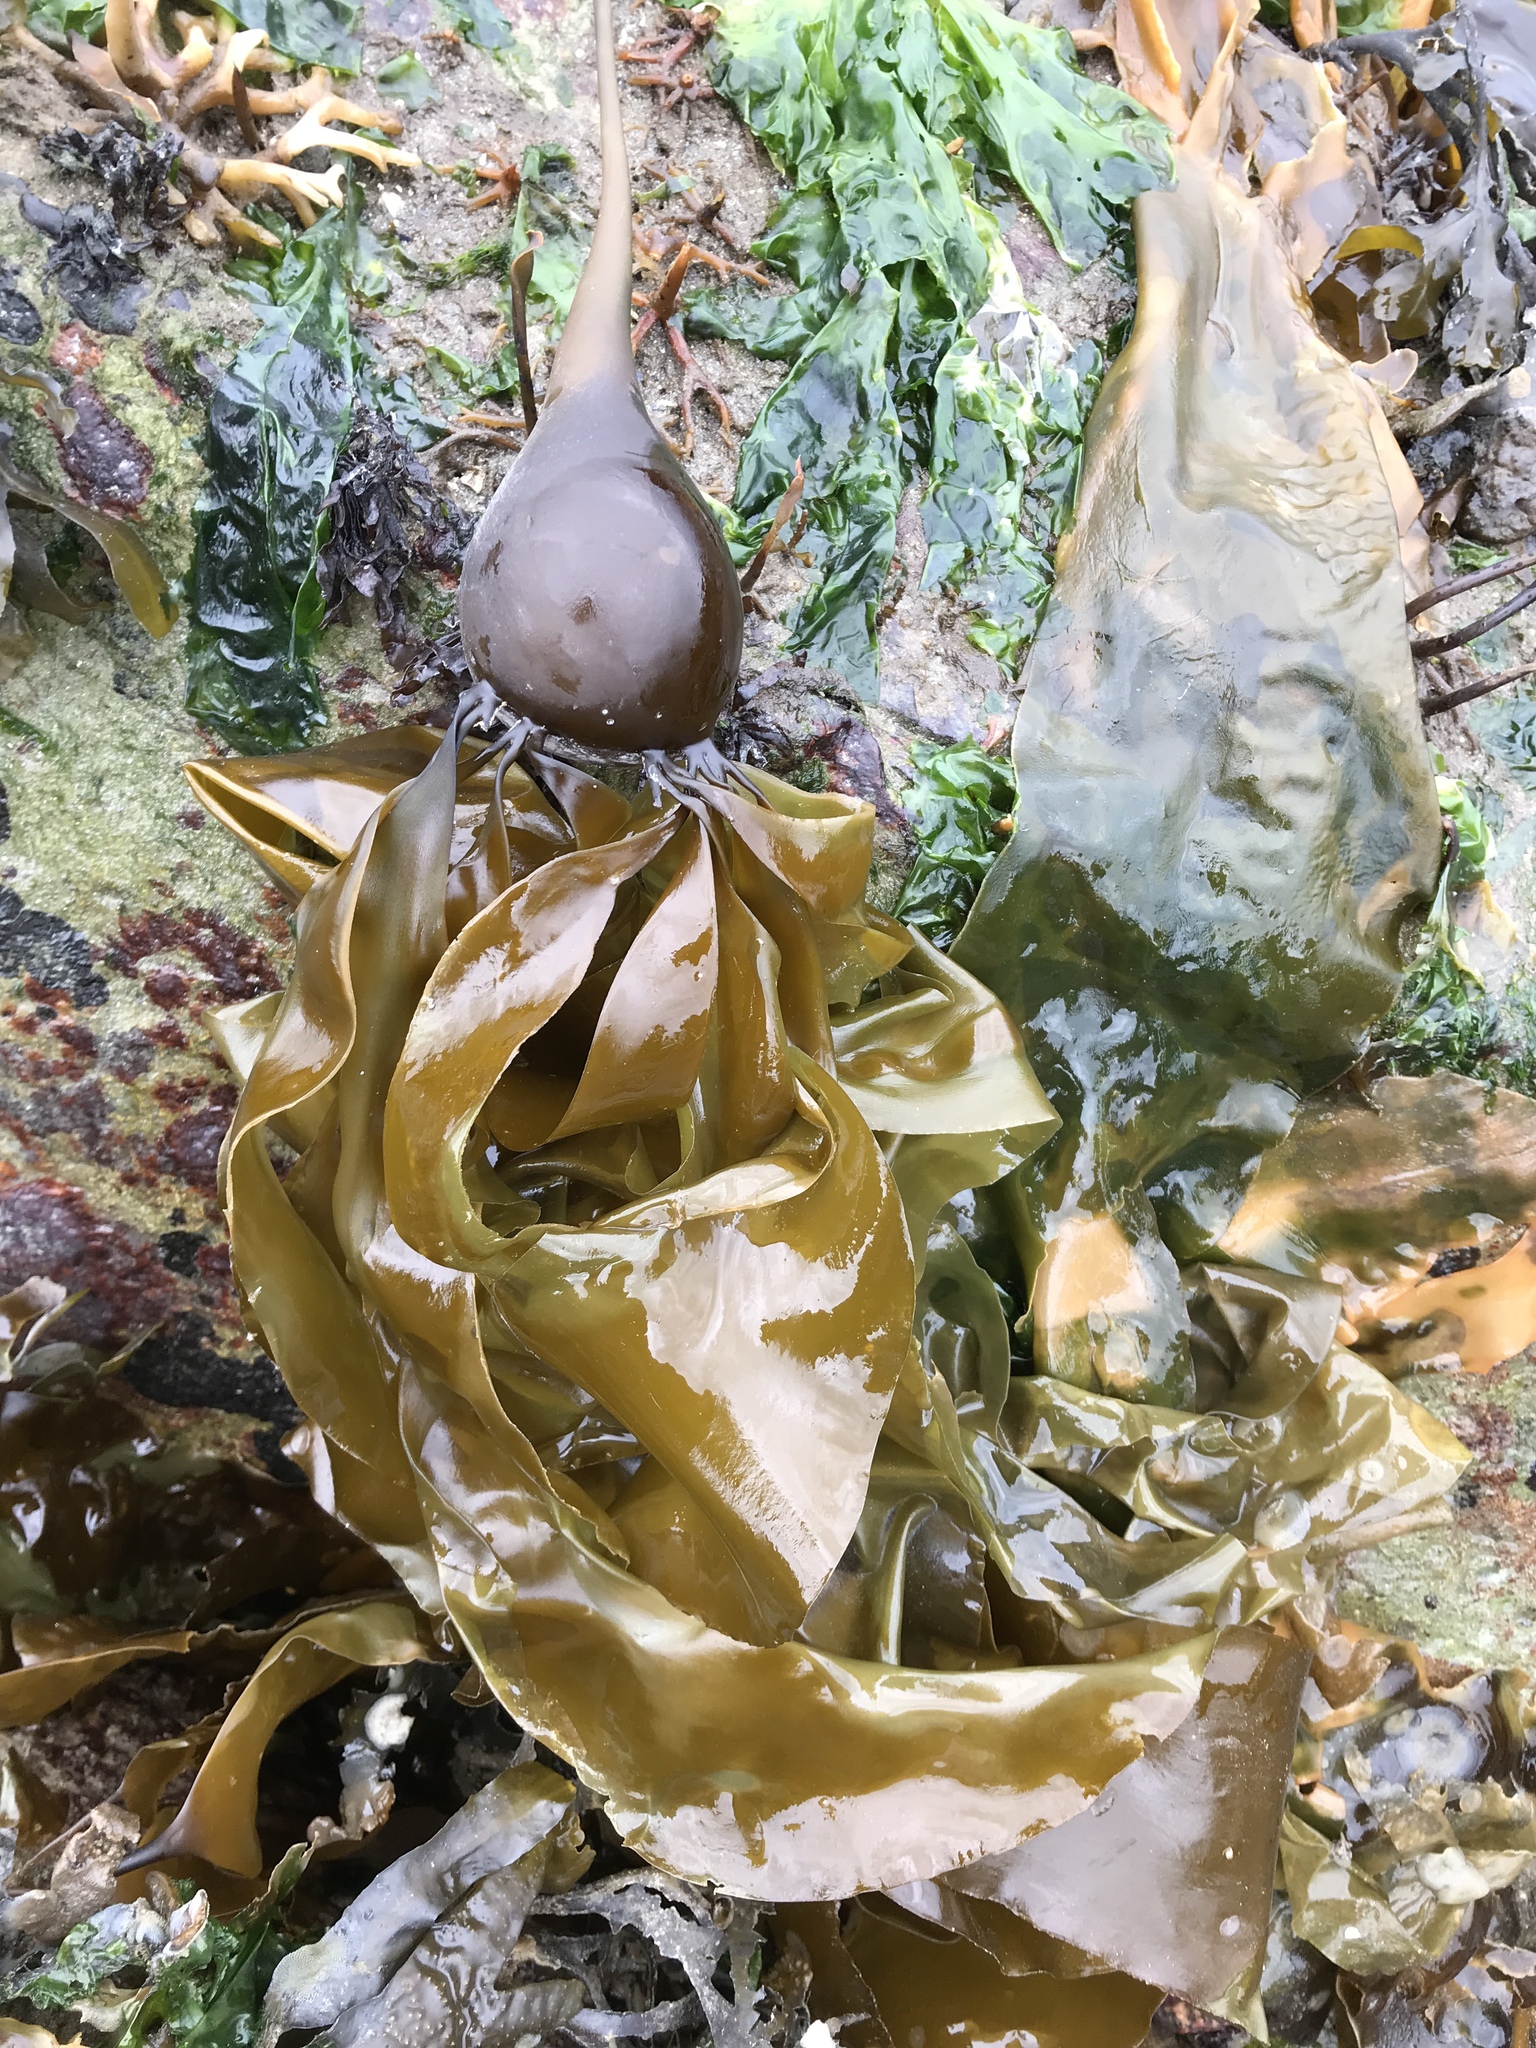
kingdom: Chromista
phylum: Ochrophyta
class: Phaeophyceae
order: Laminariales
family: Laminariaceae
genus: Nereocystis
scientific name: Nereocystis luetkeana
